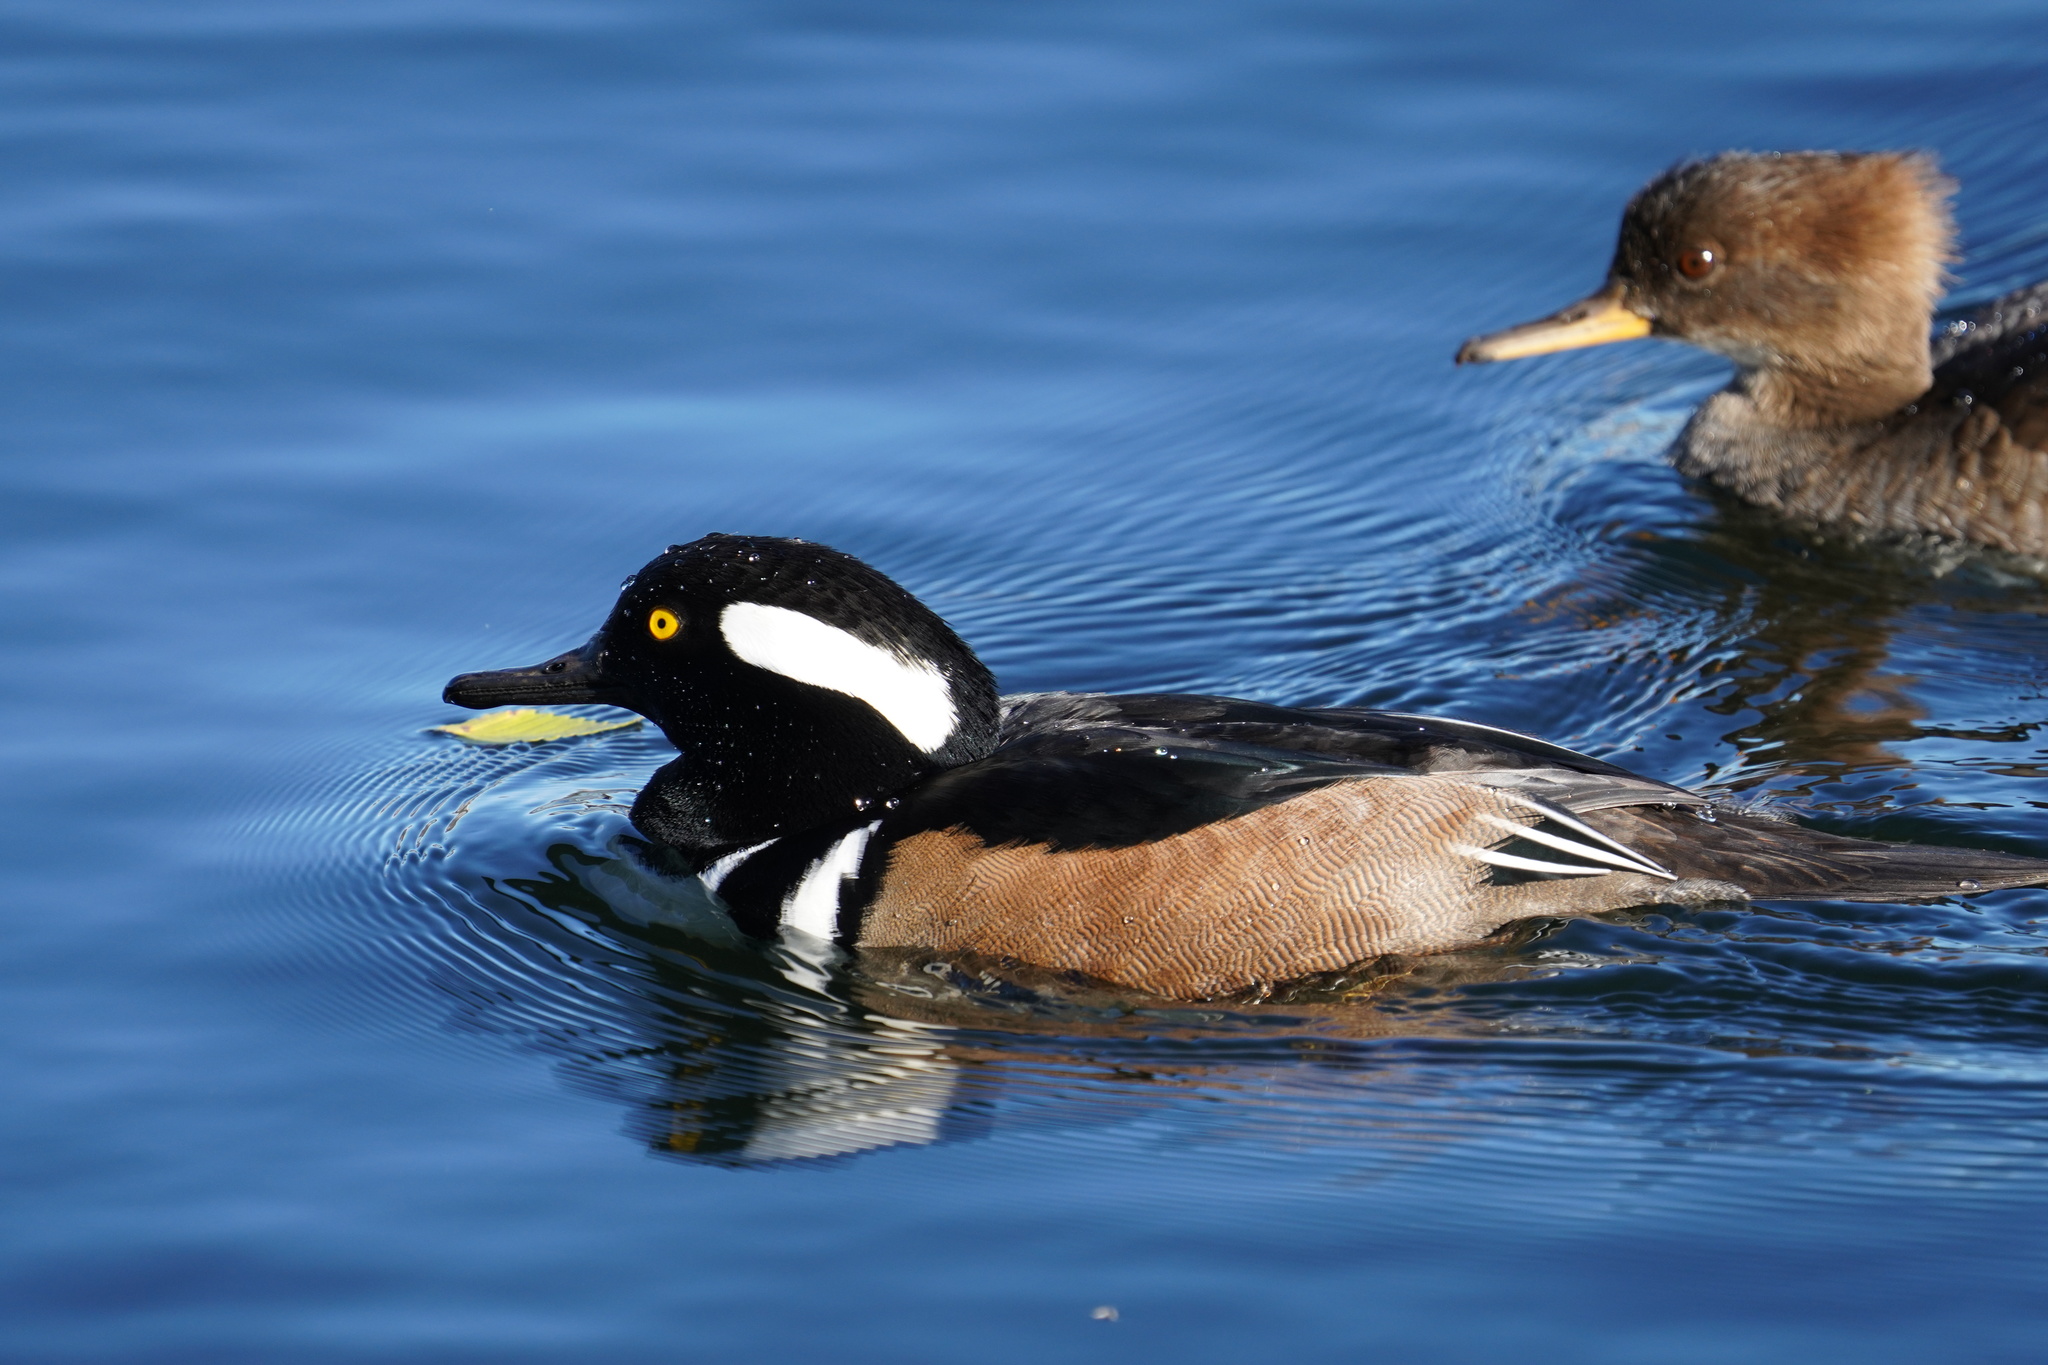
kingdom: Animalia
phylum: Chordata
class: Aves
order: Anseriformes
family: Anatidae
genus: Lophodytes
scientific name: Lophodytes cucullatus
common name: Hooded merganser
